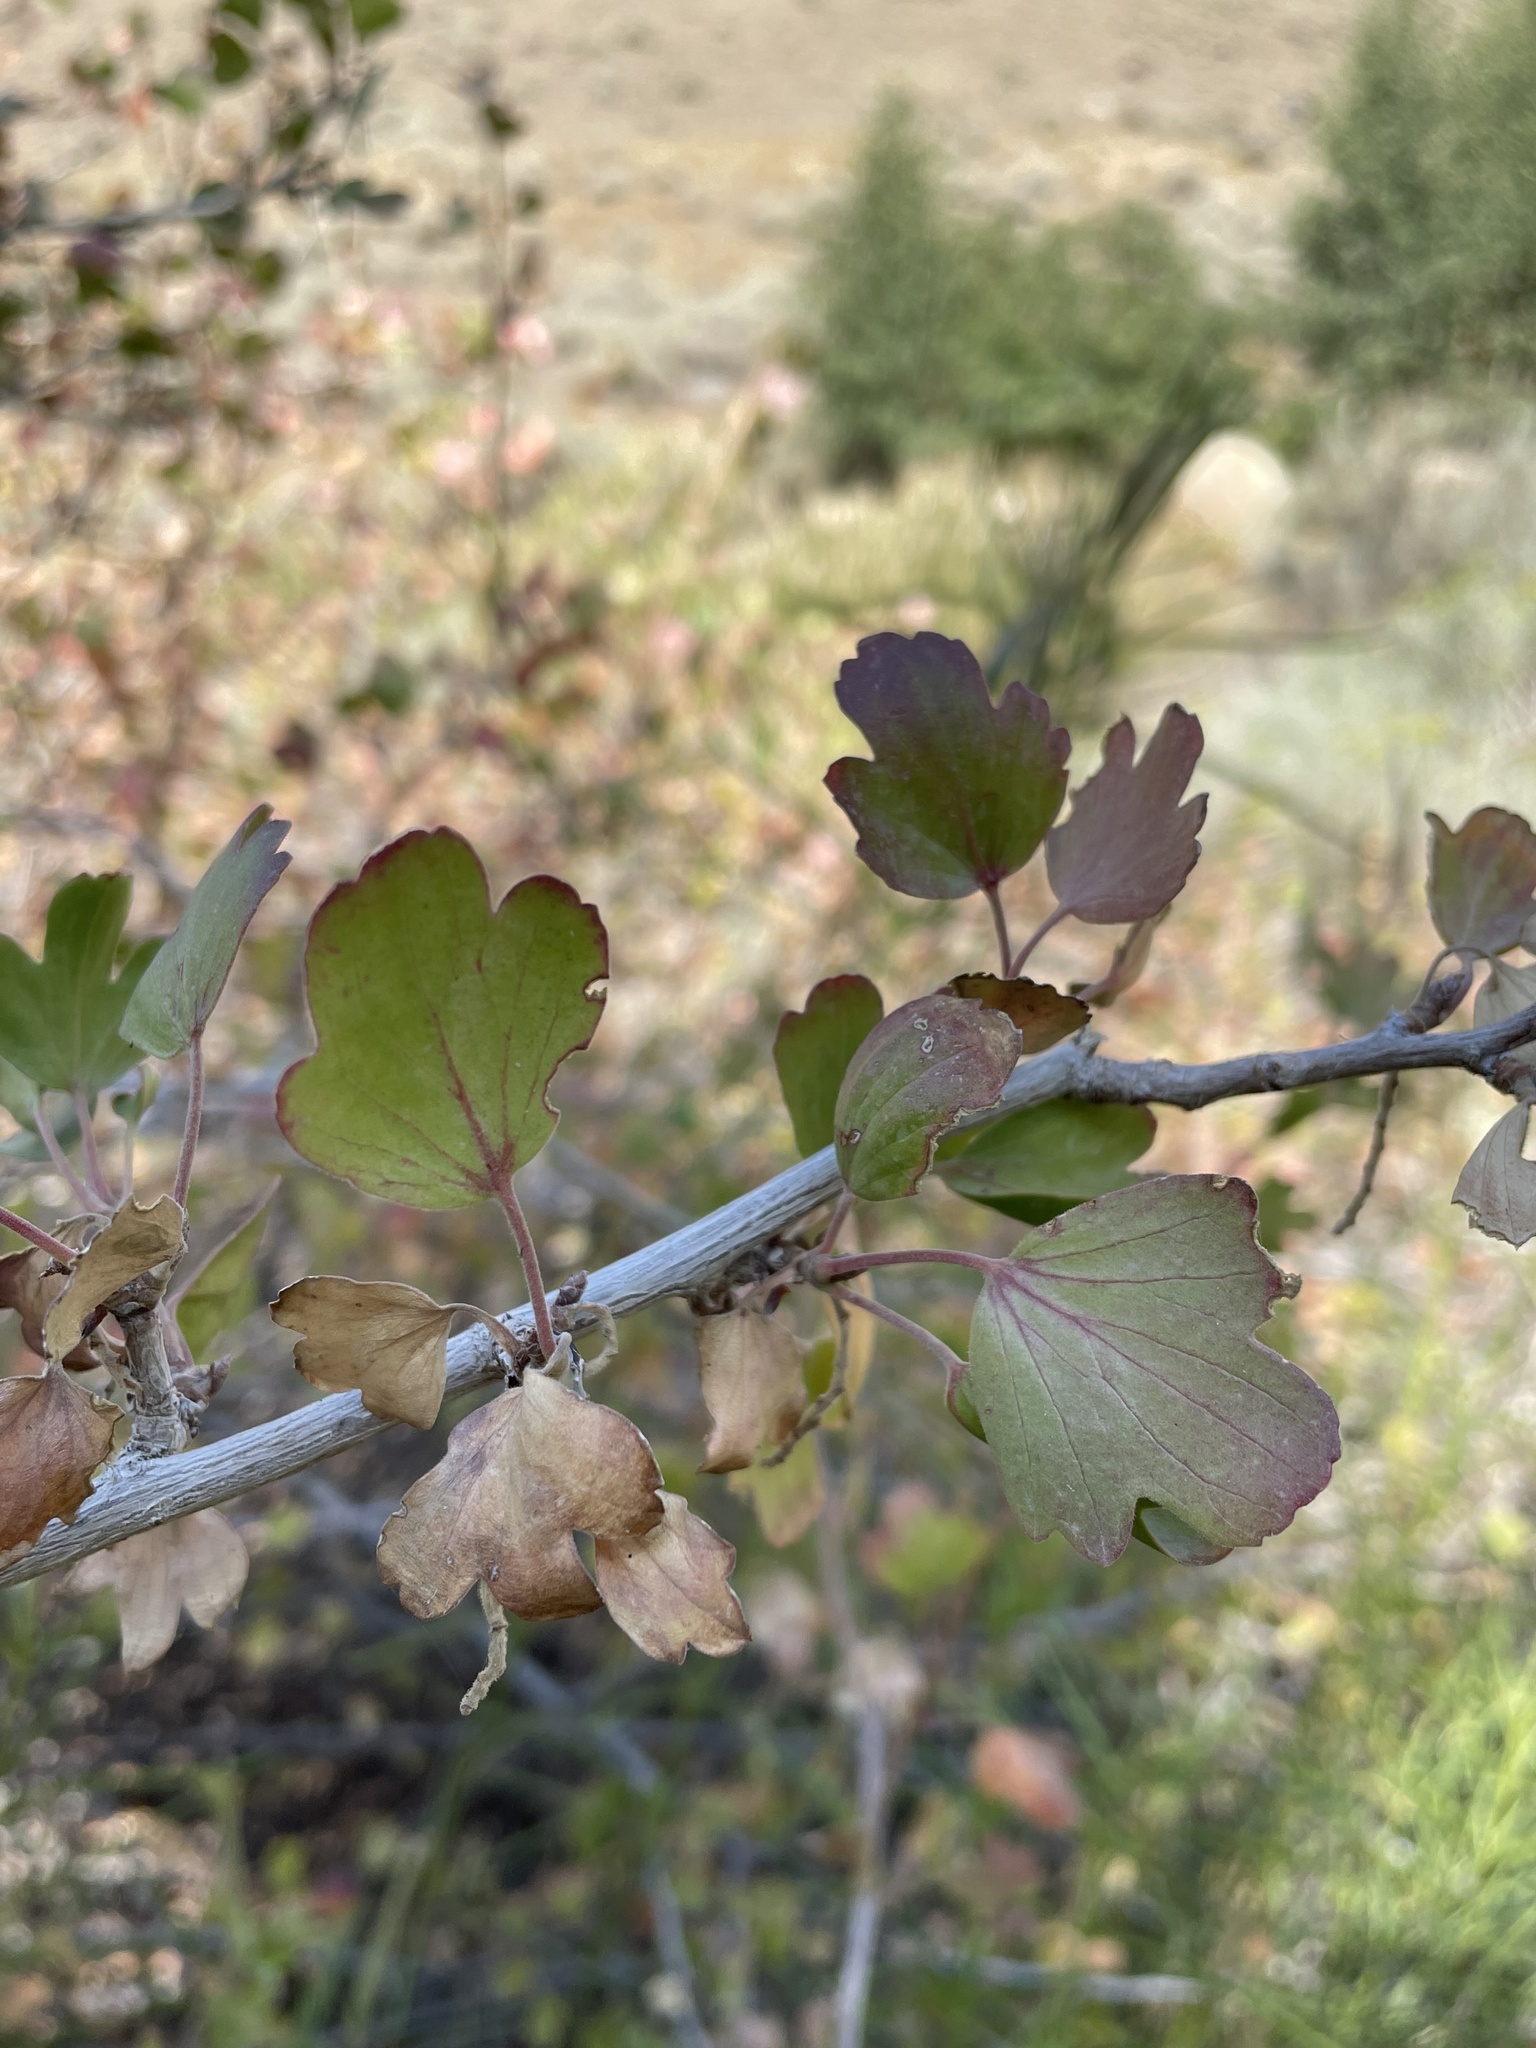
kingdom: Plantae
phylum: Tracheophyta
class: Magnoliopsida
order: Saxifragales
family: Grossulariaceae
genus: Ribes
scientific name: Ribes aureum
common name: Golden currant
